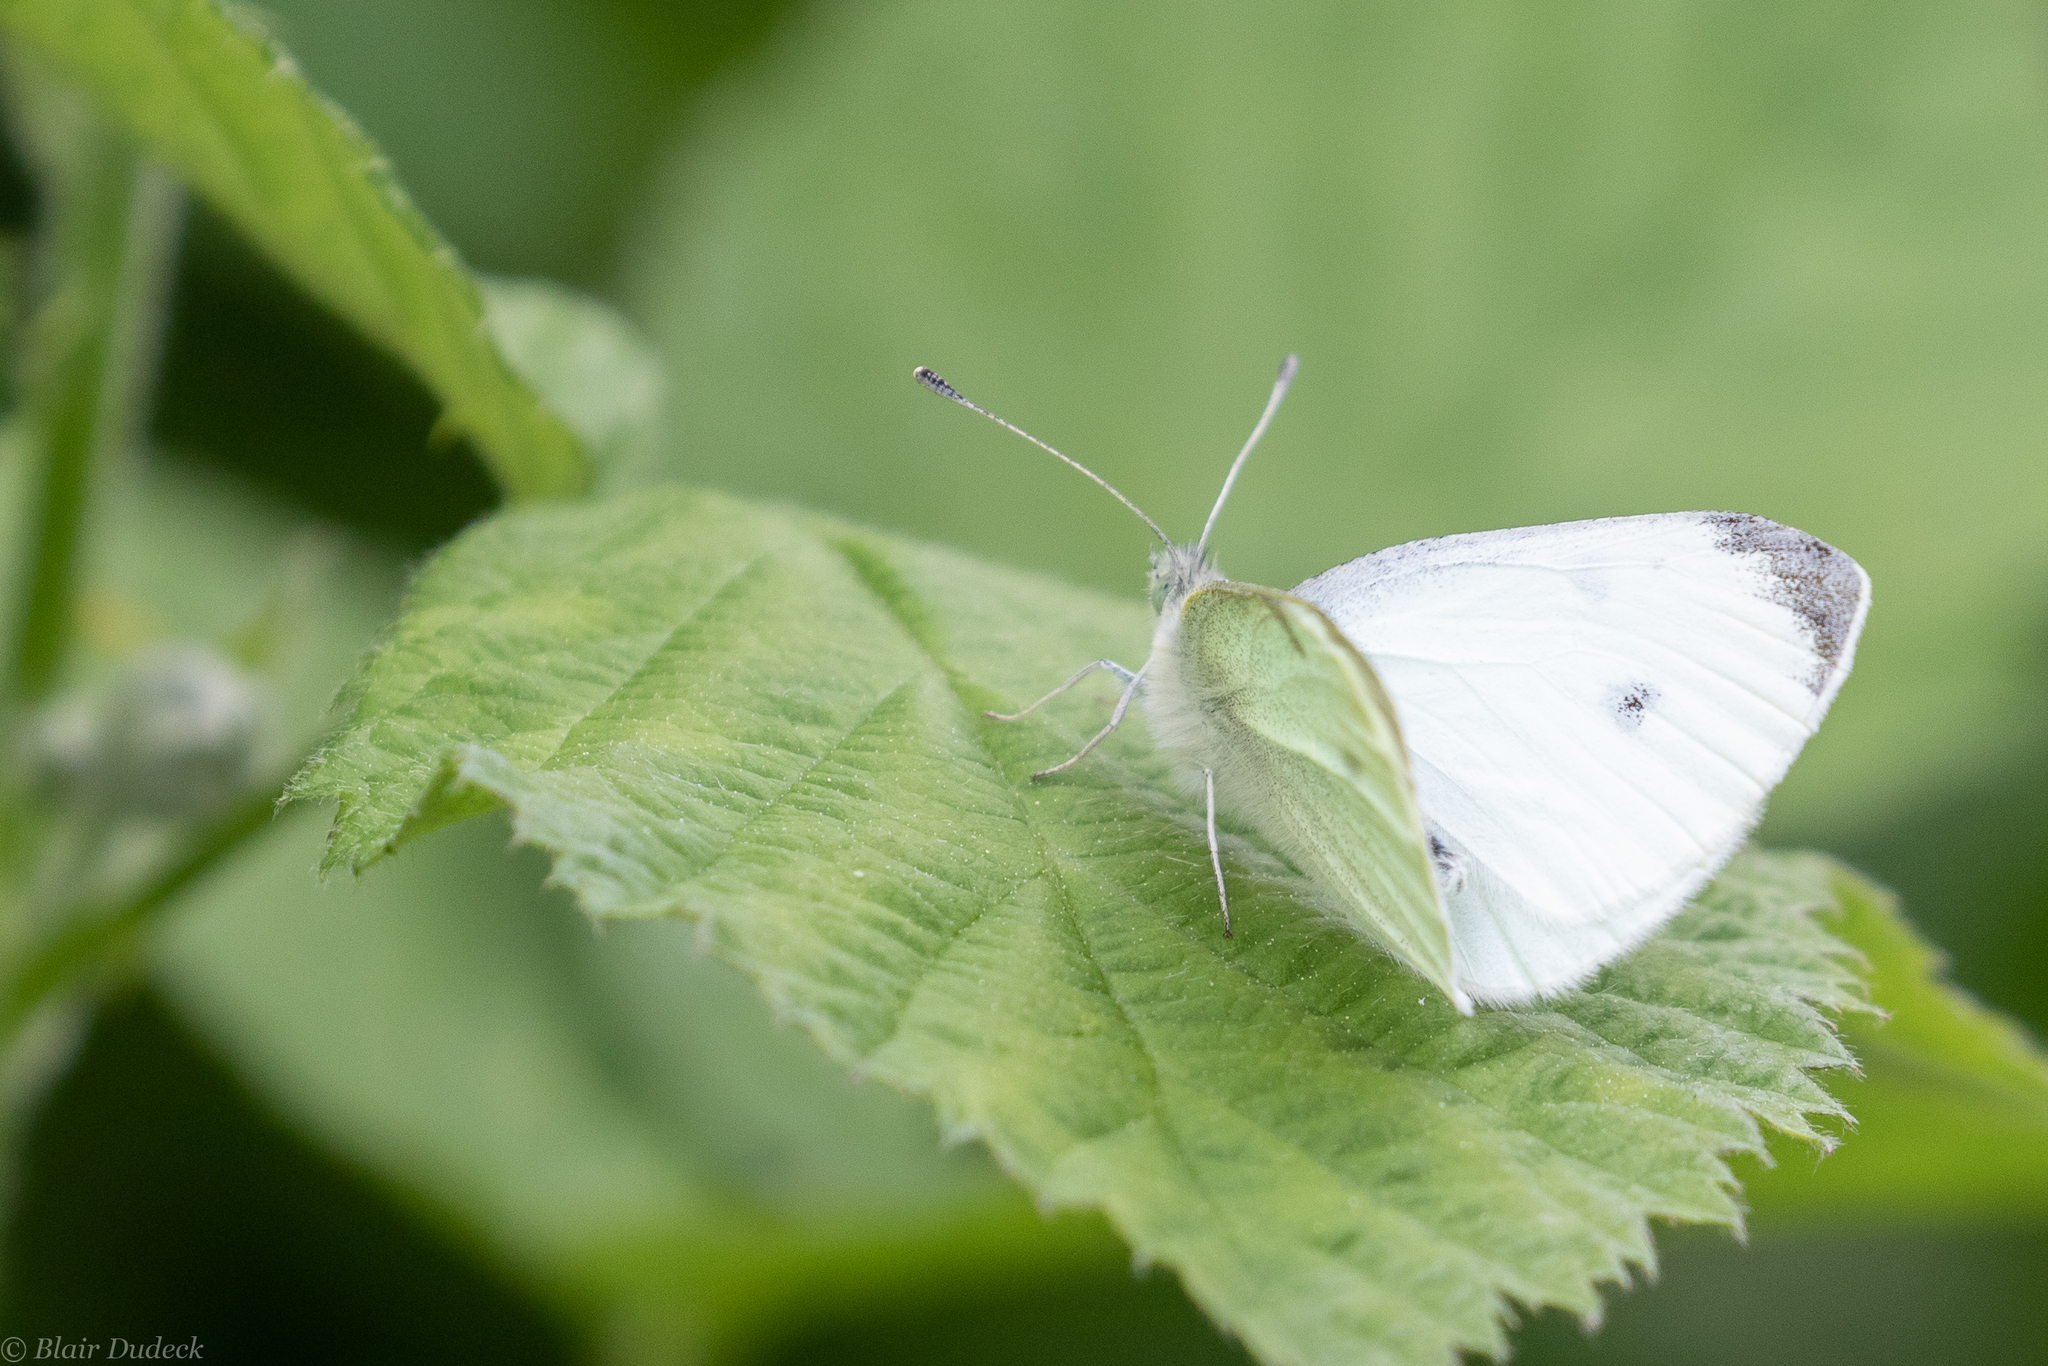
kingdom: Animalia
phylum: Arthropoda
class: Insecta
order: Lepidoptera
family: Pieridae
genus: Pieris
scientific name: Pieris rapae
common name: Small white
